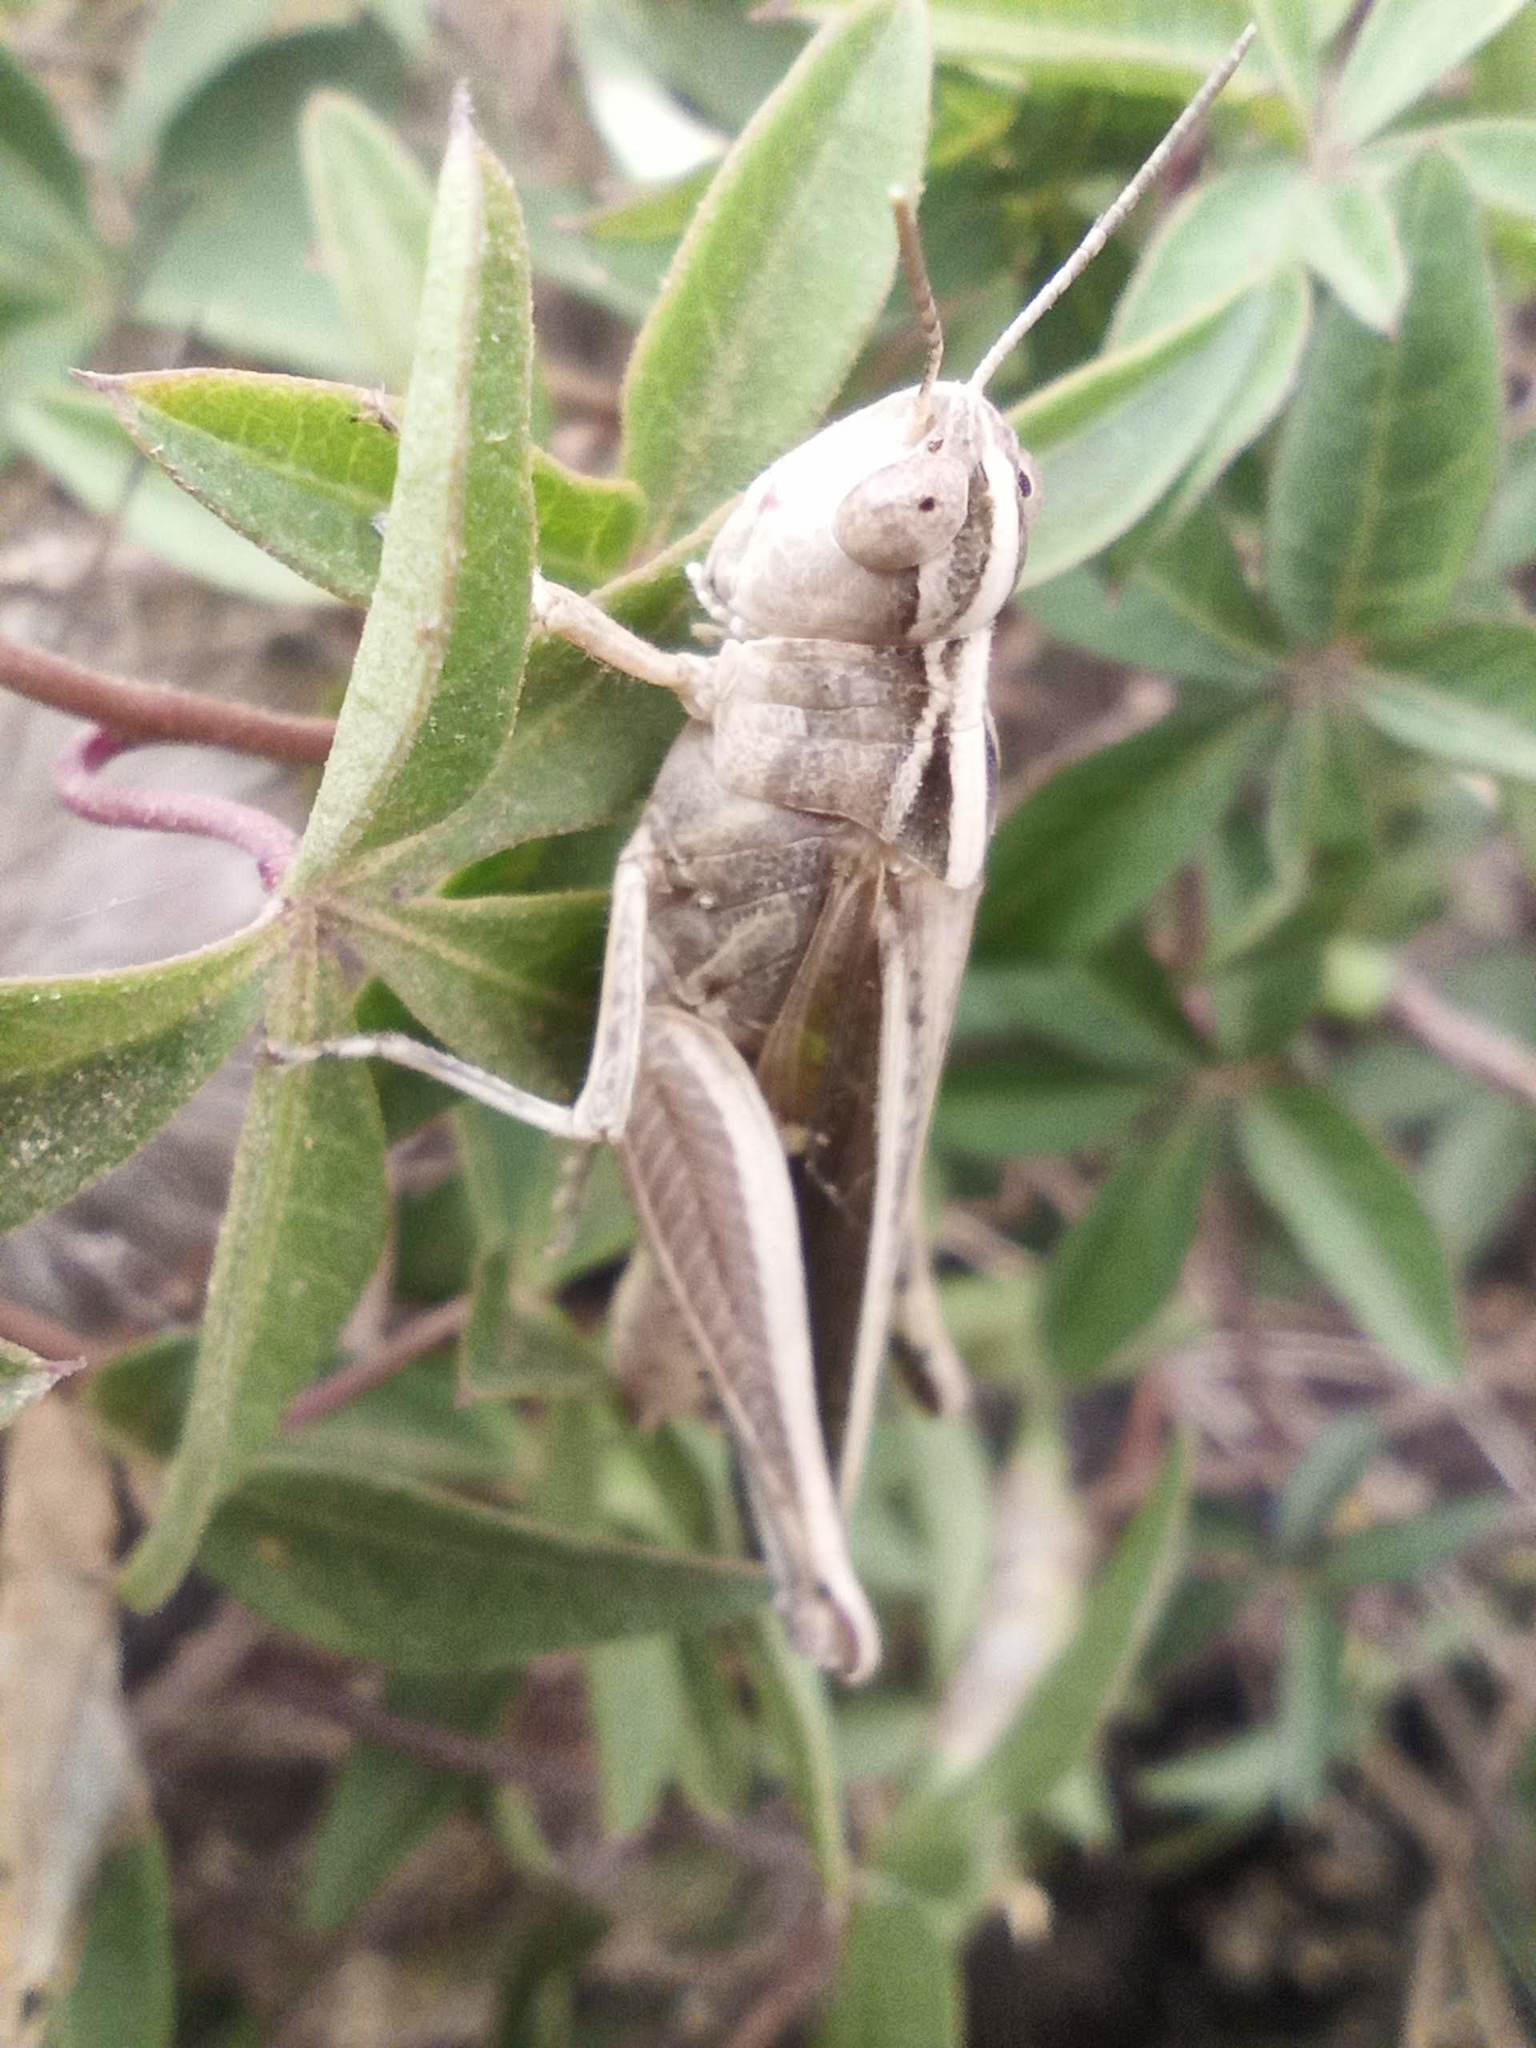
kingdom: Animalia
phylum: Arthropoda
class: Insecta
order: Orthoptera
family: Acrididae
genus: Aiolopus
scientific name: Aiolopus thalassinus
